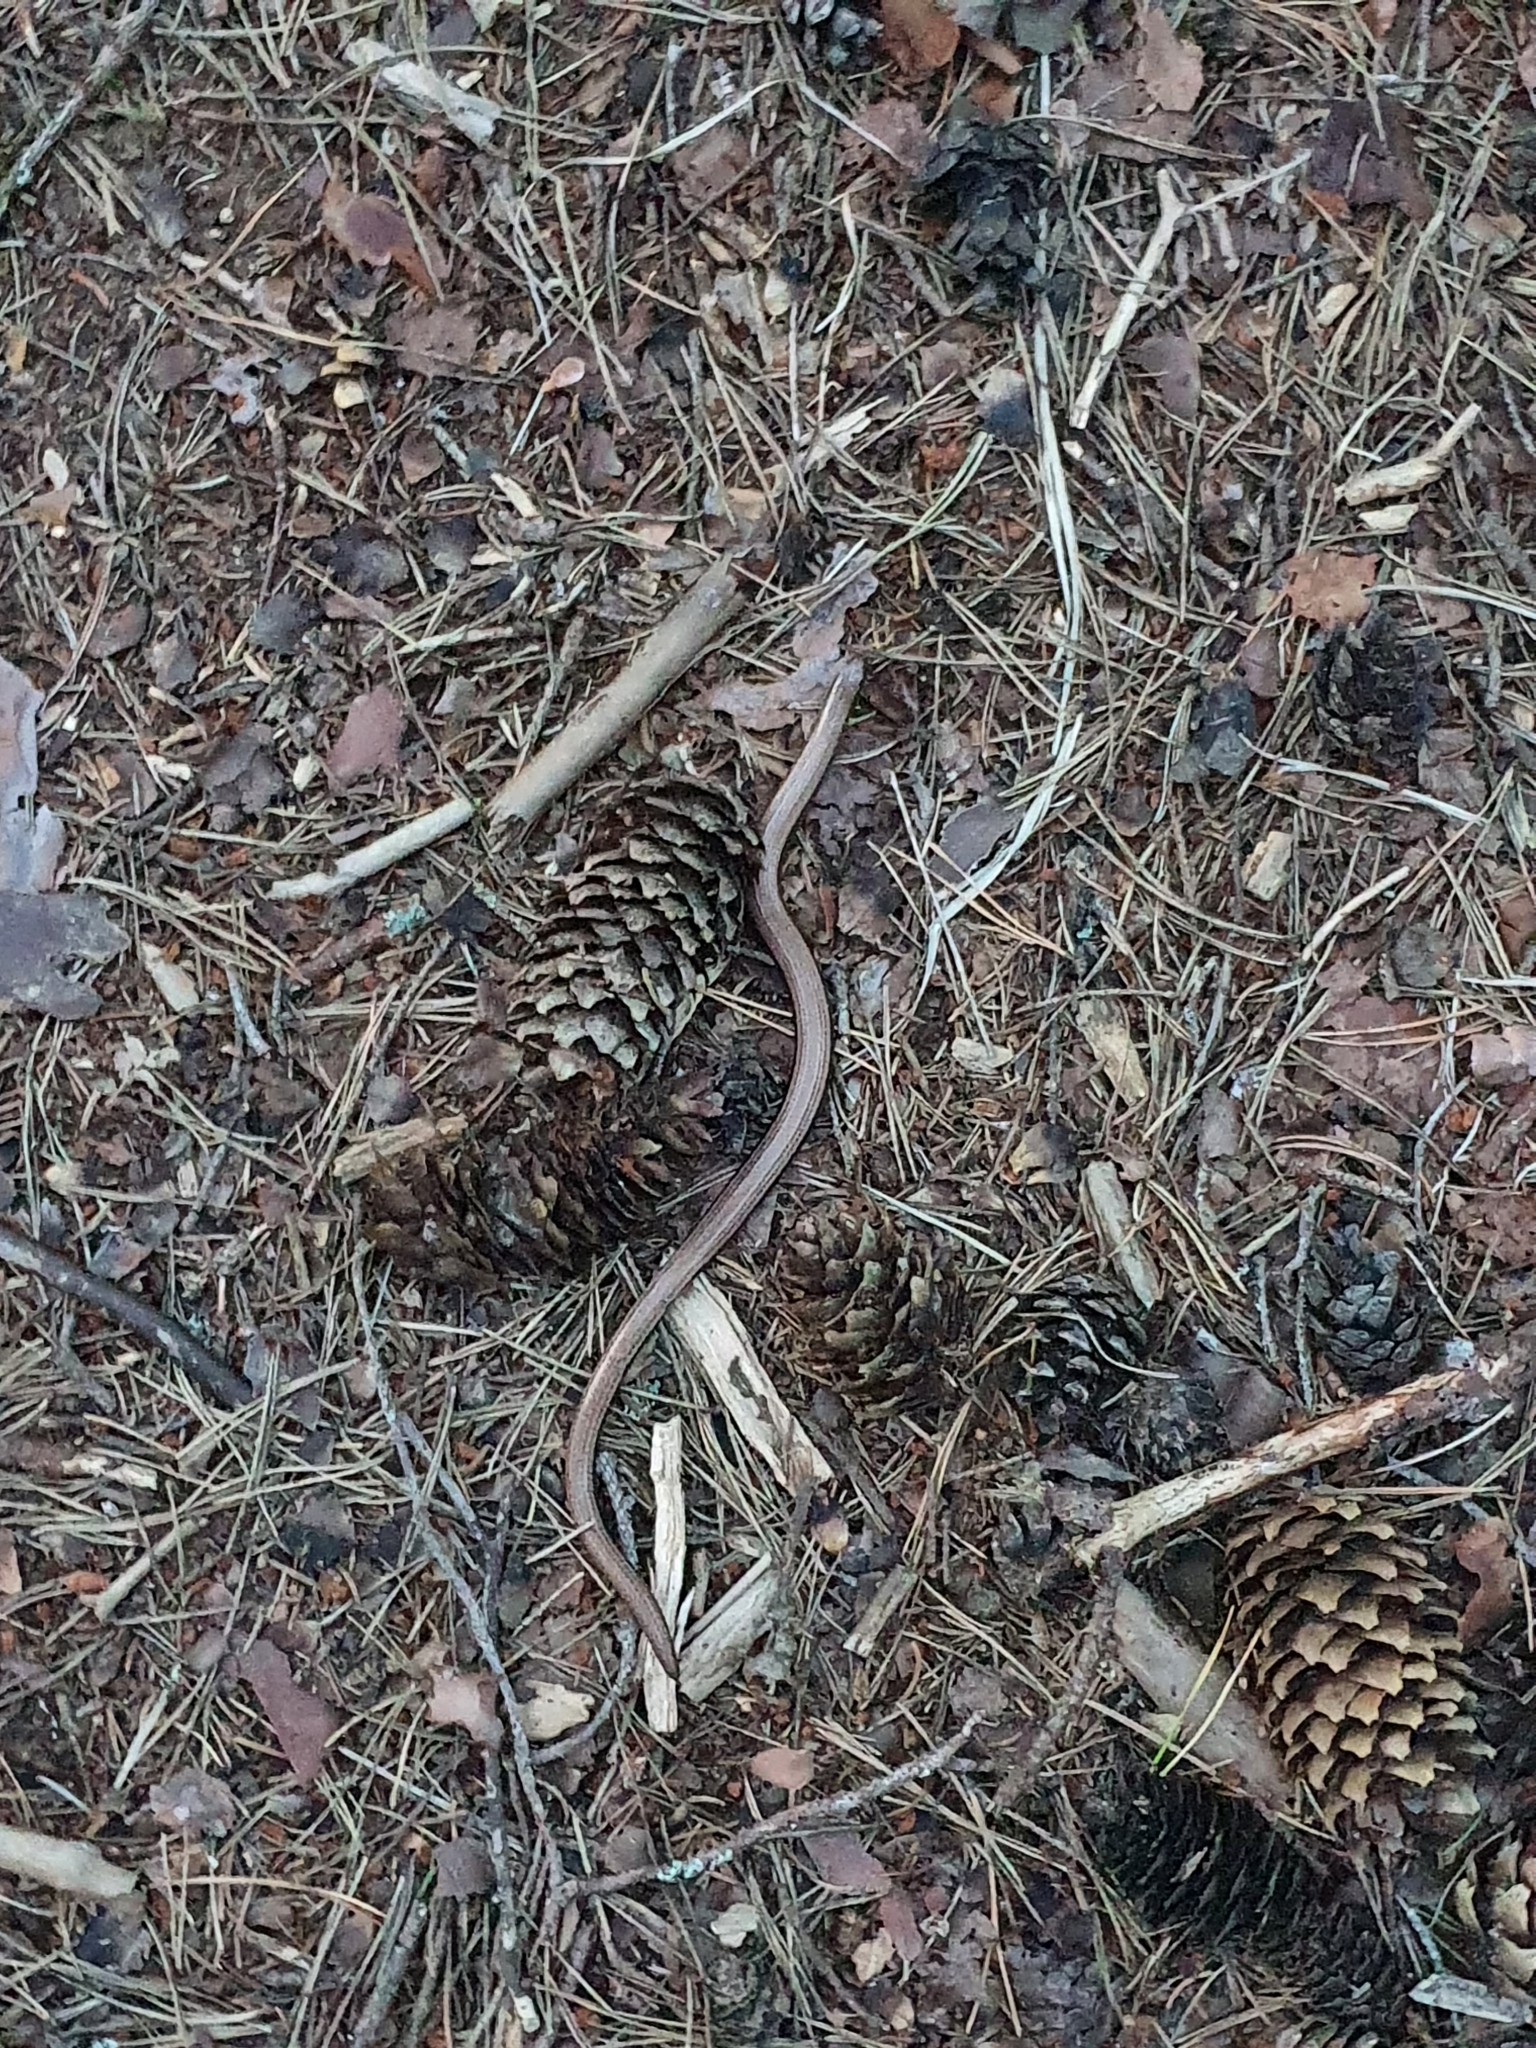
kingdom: Animalia
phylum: Chordata
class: Squamata
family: Anguidae
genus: Anguis
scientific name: Anguis fragilis
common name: Slow worm
